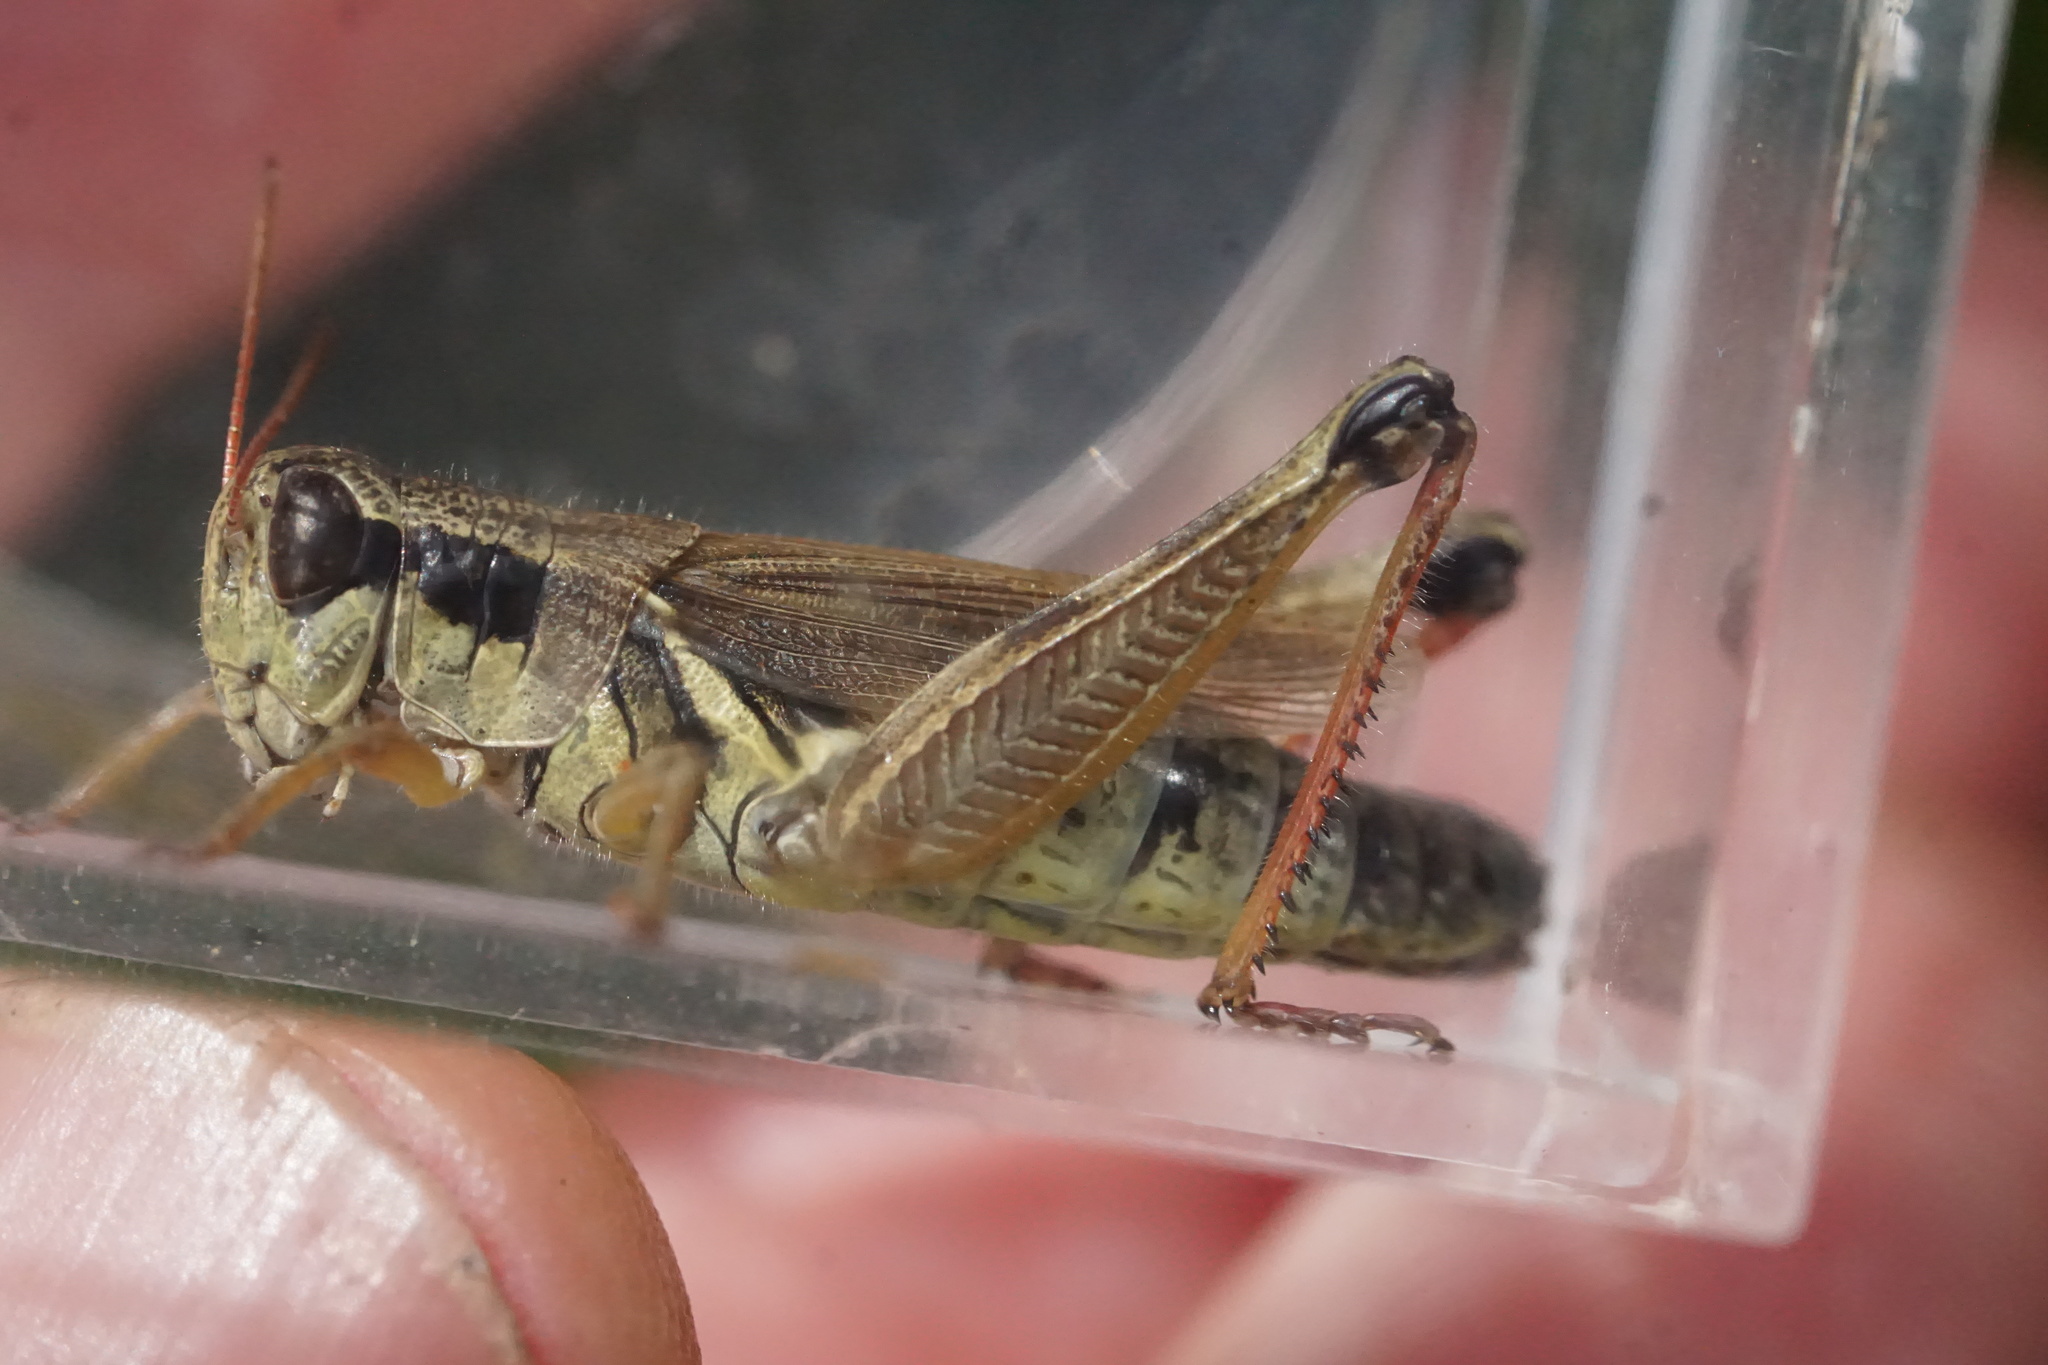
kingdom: Animalia
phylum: Arthropoda
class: Insecta
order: Orthoptera
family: Acrididae
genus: Melanoplus
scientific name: Melanoplus borealis
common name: Northern grasshopper
